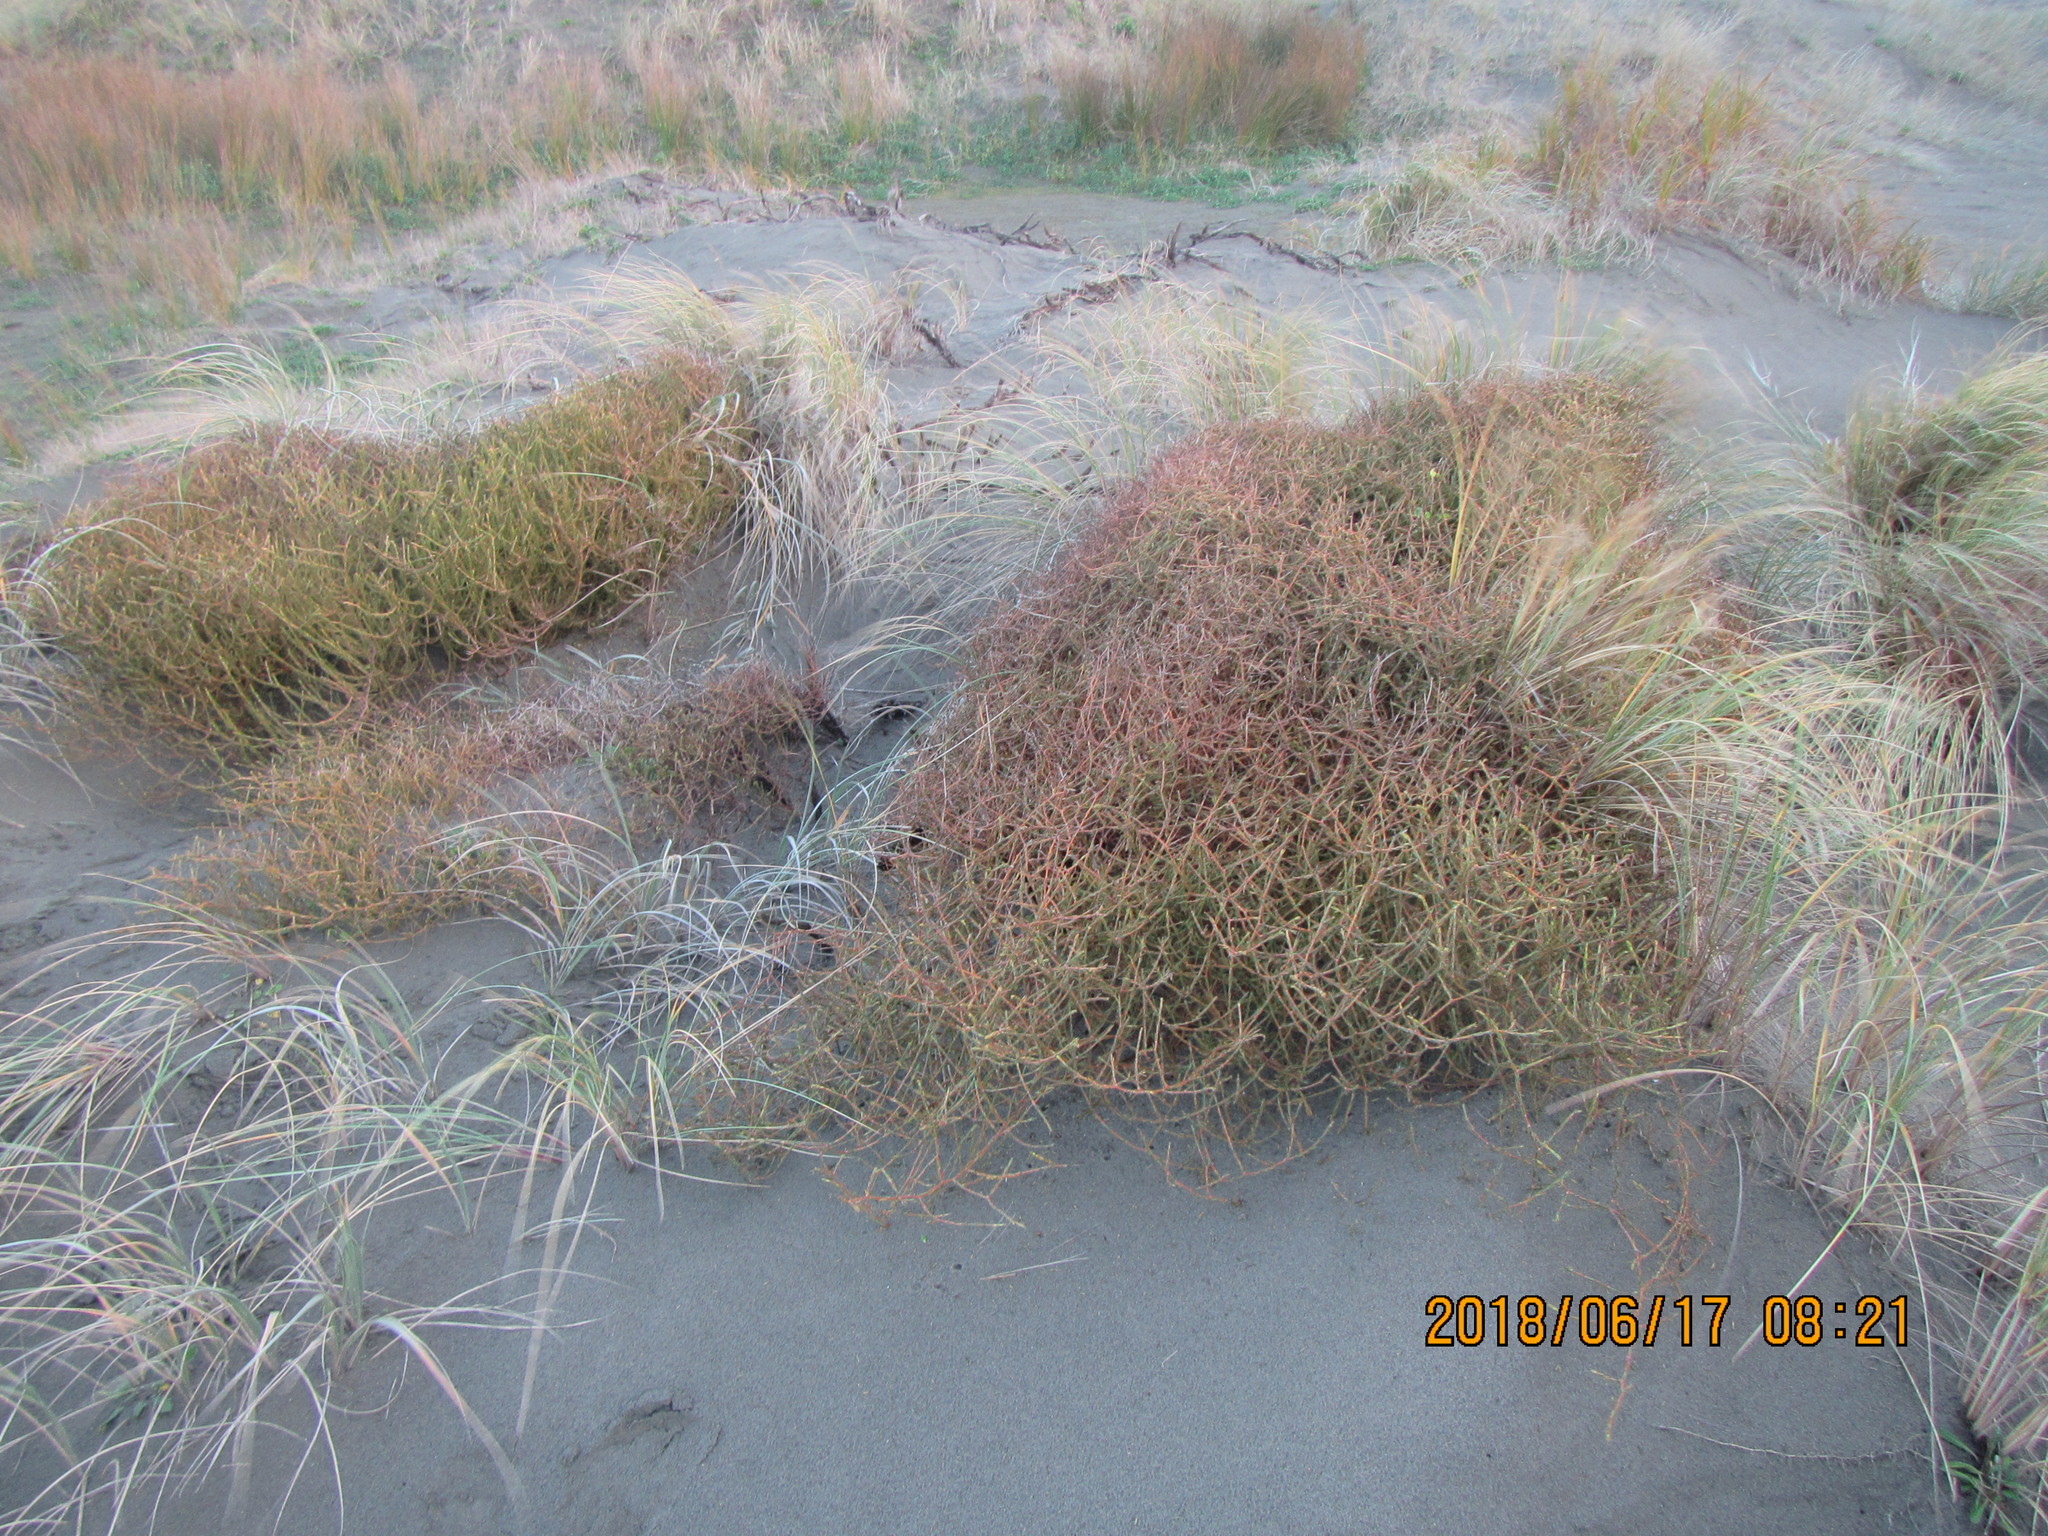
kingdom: Plantae
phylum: Tracheophyta
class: Magnoliopsida
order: Gentianales
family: Rubiaceae
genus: Coprosma
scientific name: Coprosma acerosa
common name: Sand coprosma
